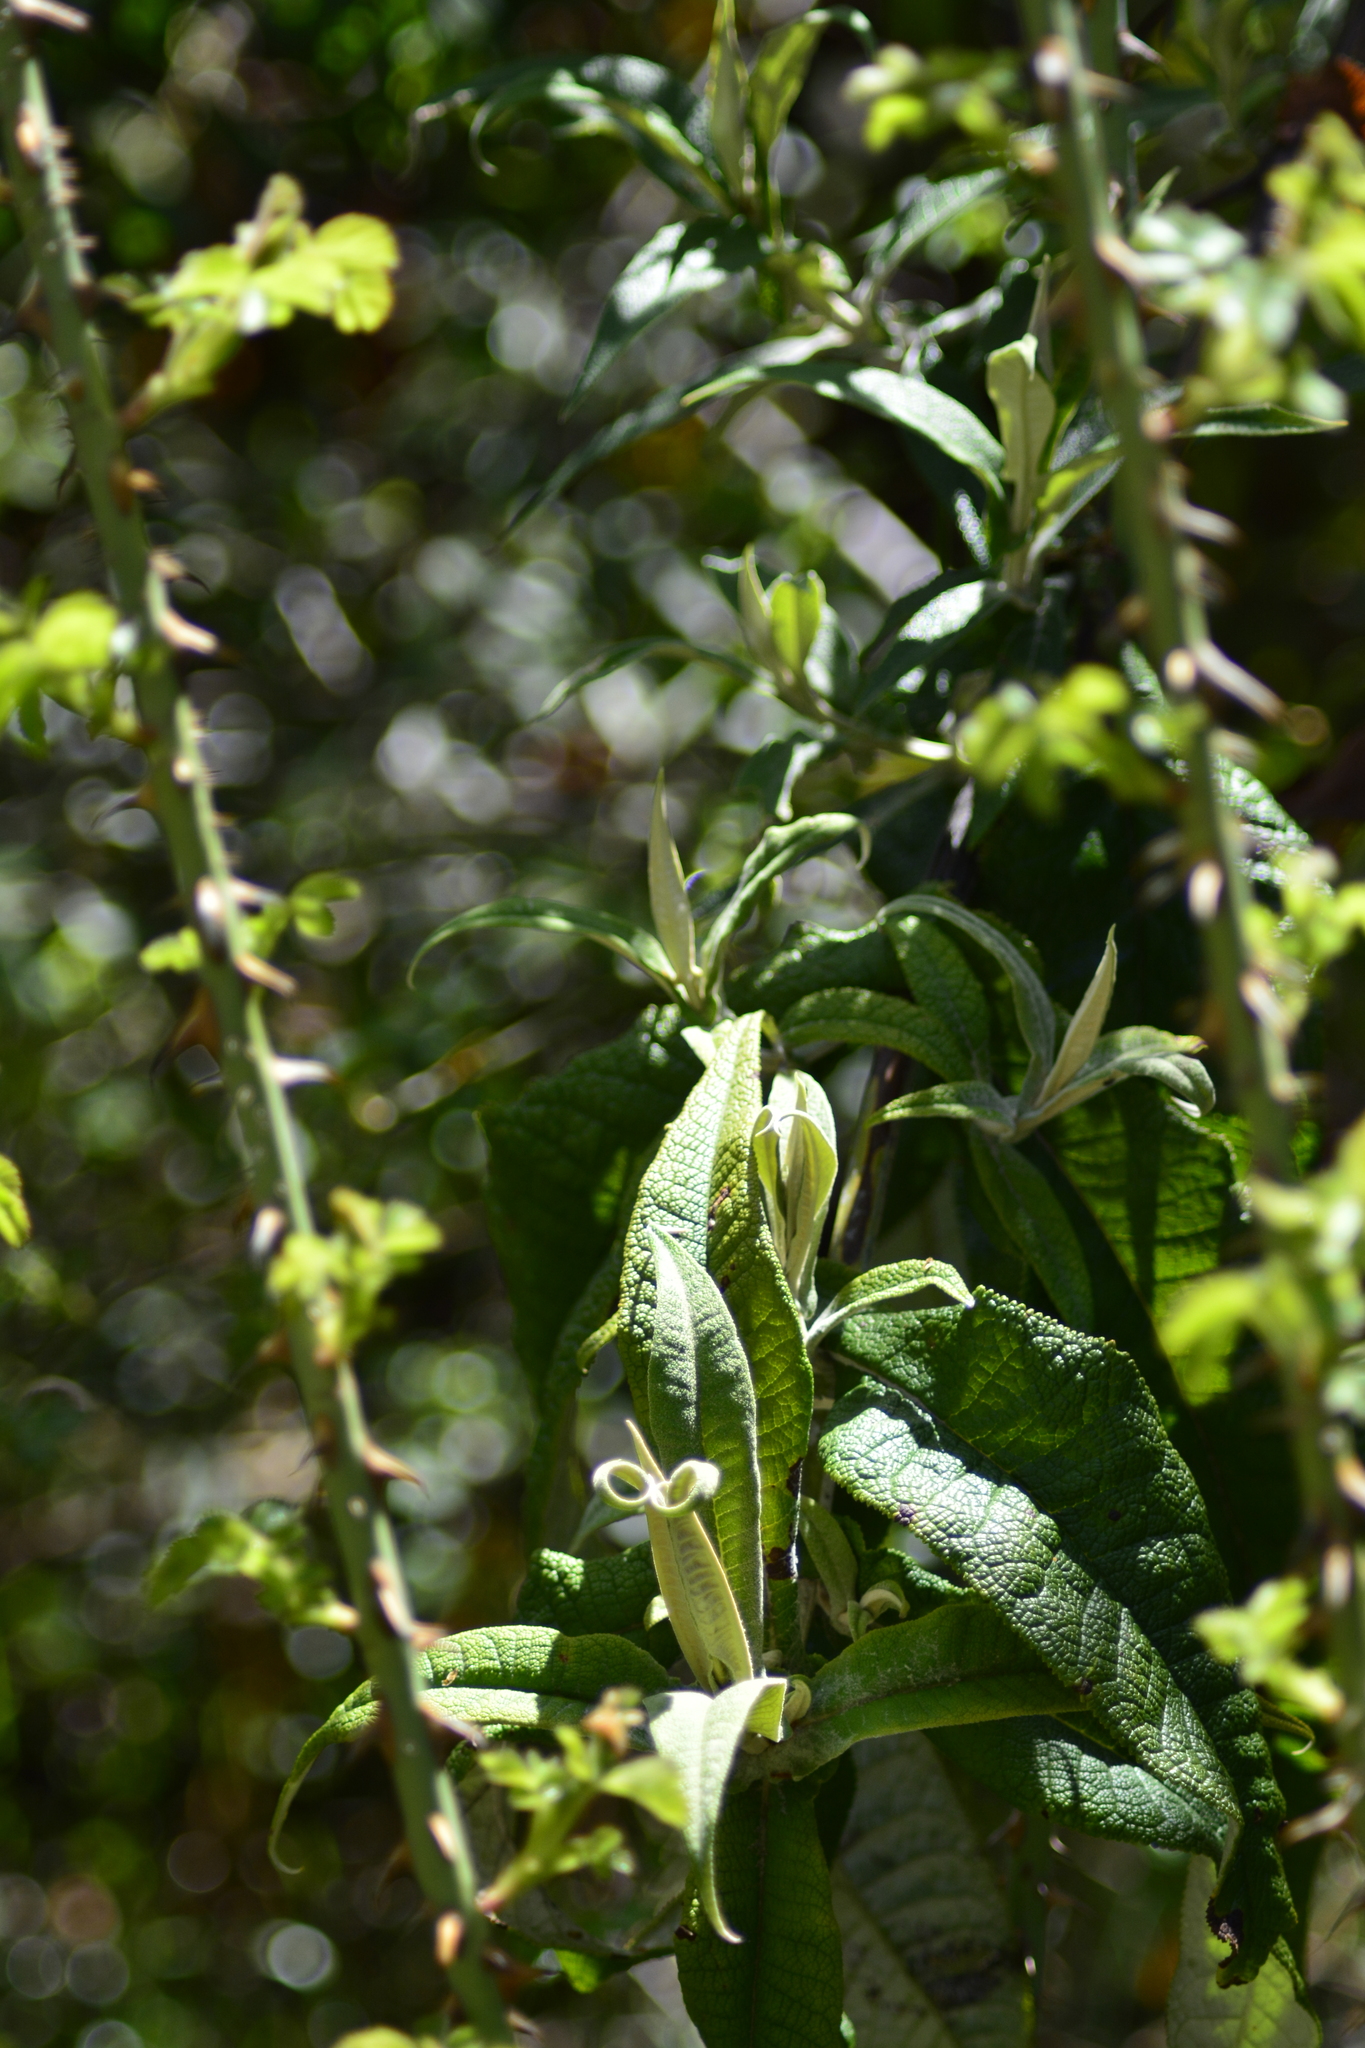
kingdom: Plantae
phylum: Tracheophyta
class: Magnoliopsida
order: Lamiales
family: Scrophulariaceae
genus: Buddleja
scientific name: Buddleja globosa
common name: Orange-ball-tree
